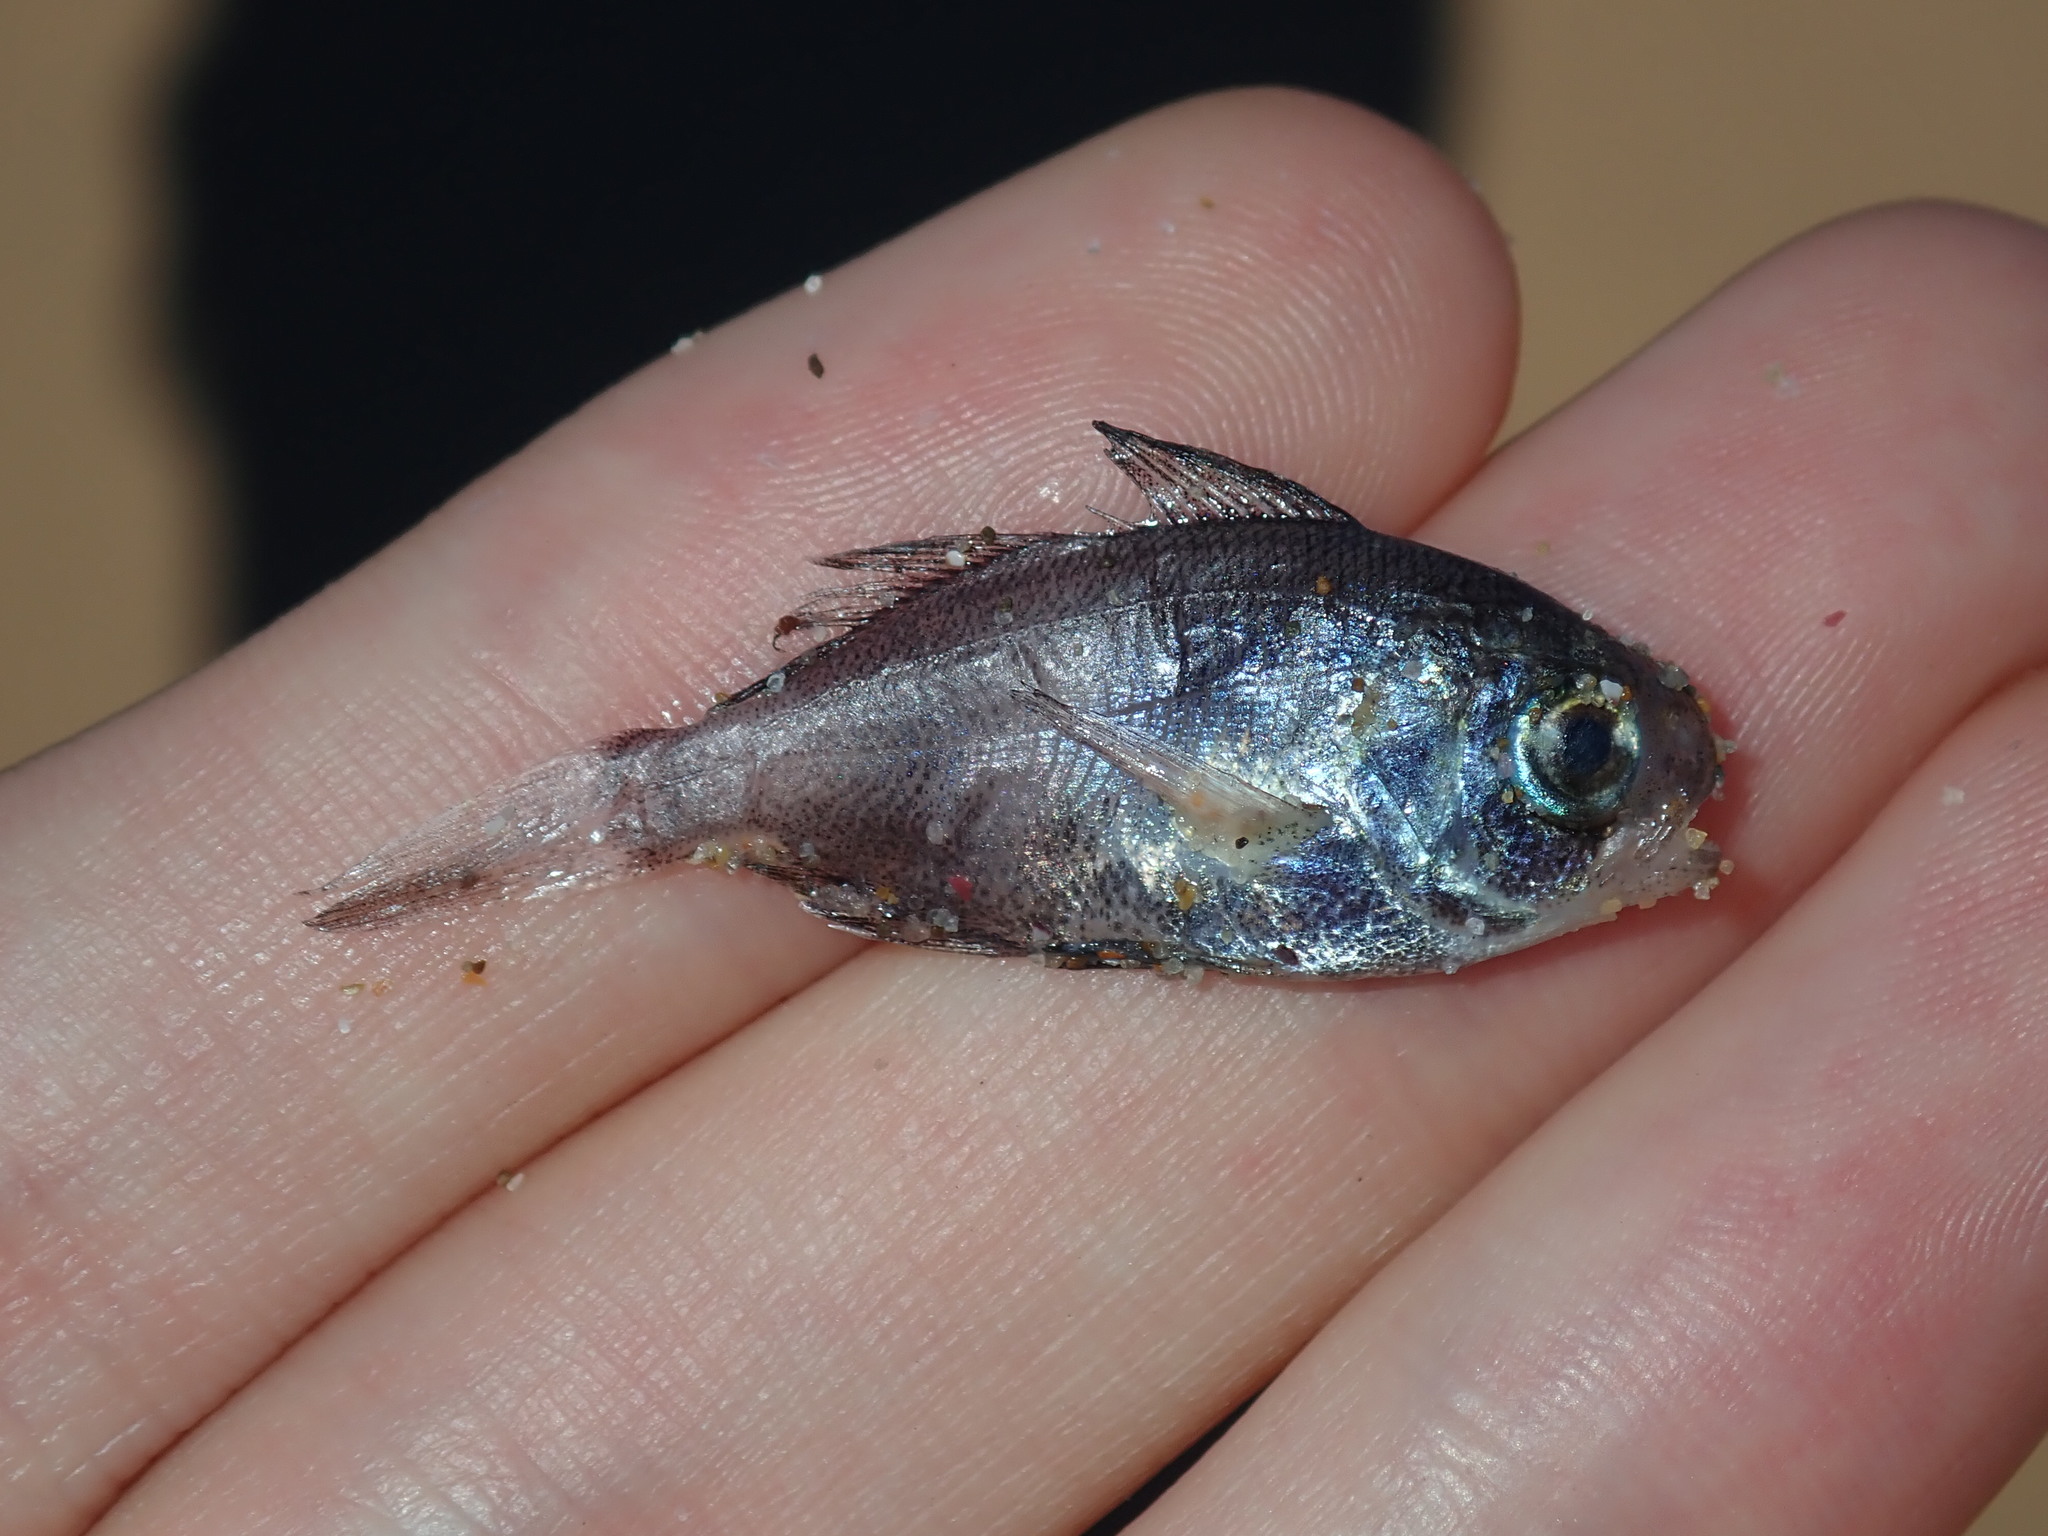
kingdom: Animalia
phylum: Chordata
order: Perciformes
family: Nomeidae
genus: Cubiceps
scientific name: Cubiceps whiteleggii
